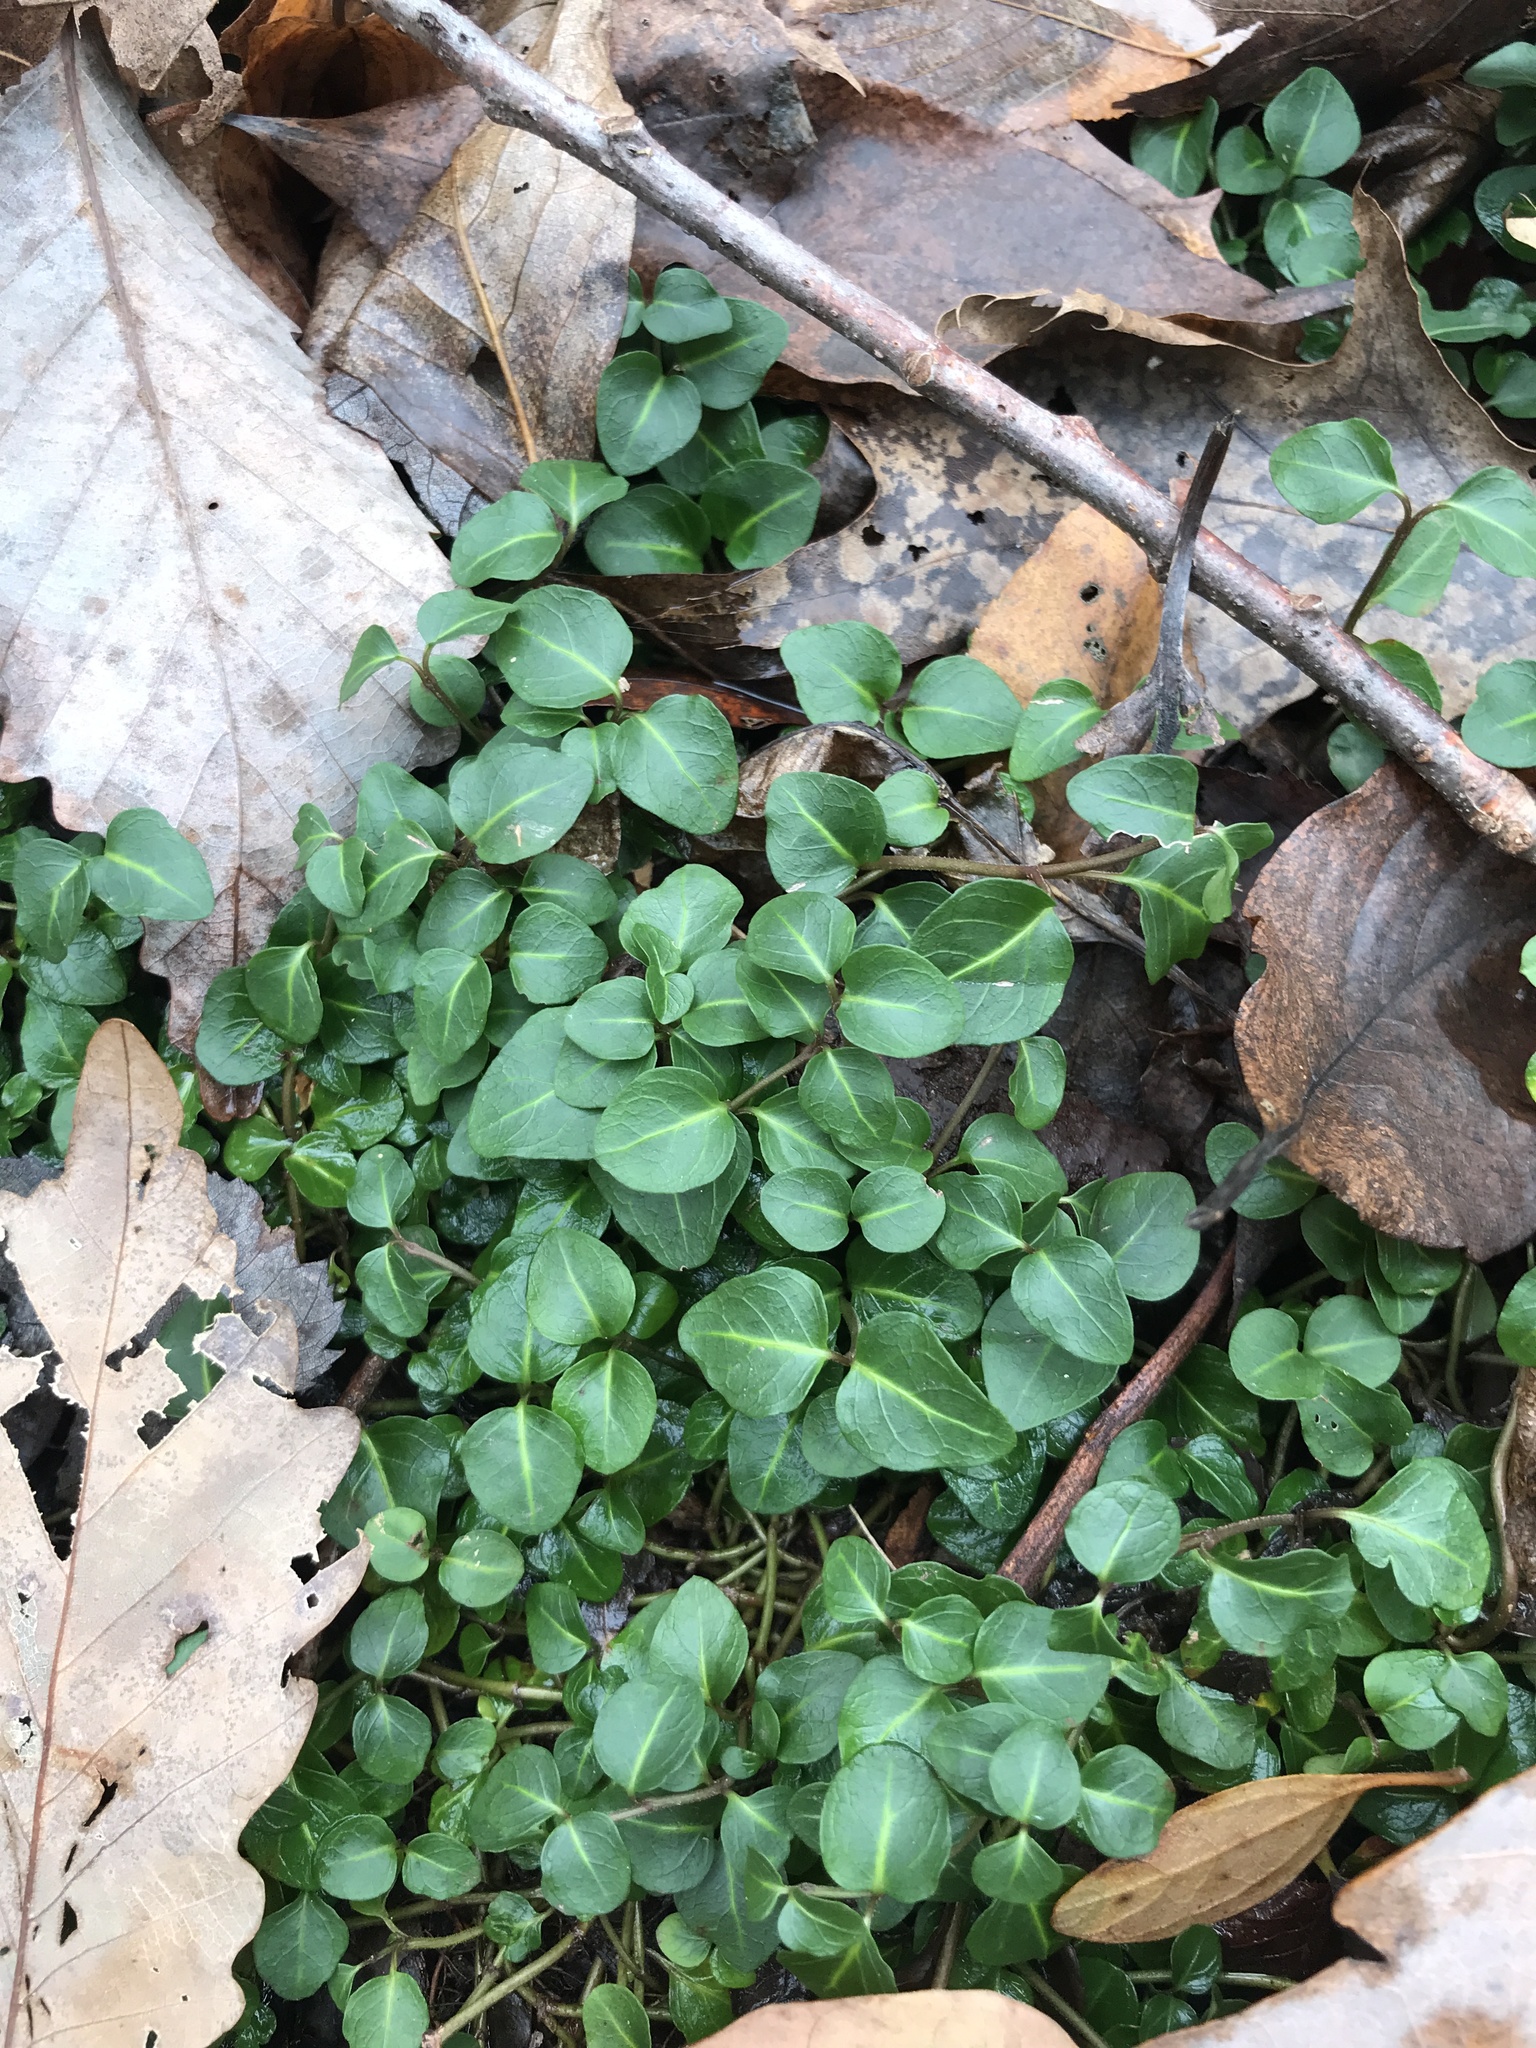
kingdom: Plantae
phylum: Tracheophyta
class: Magnoliopsida
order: Gentianales
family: Rubiaceae
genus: Mitchella
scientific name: Mitchella repens
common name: Partridge-berry
